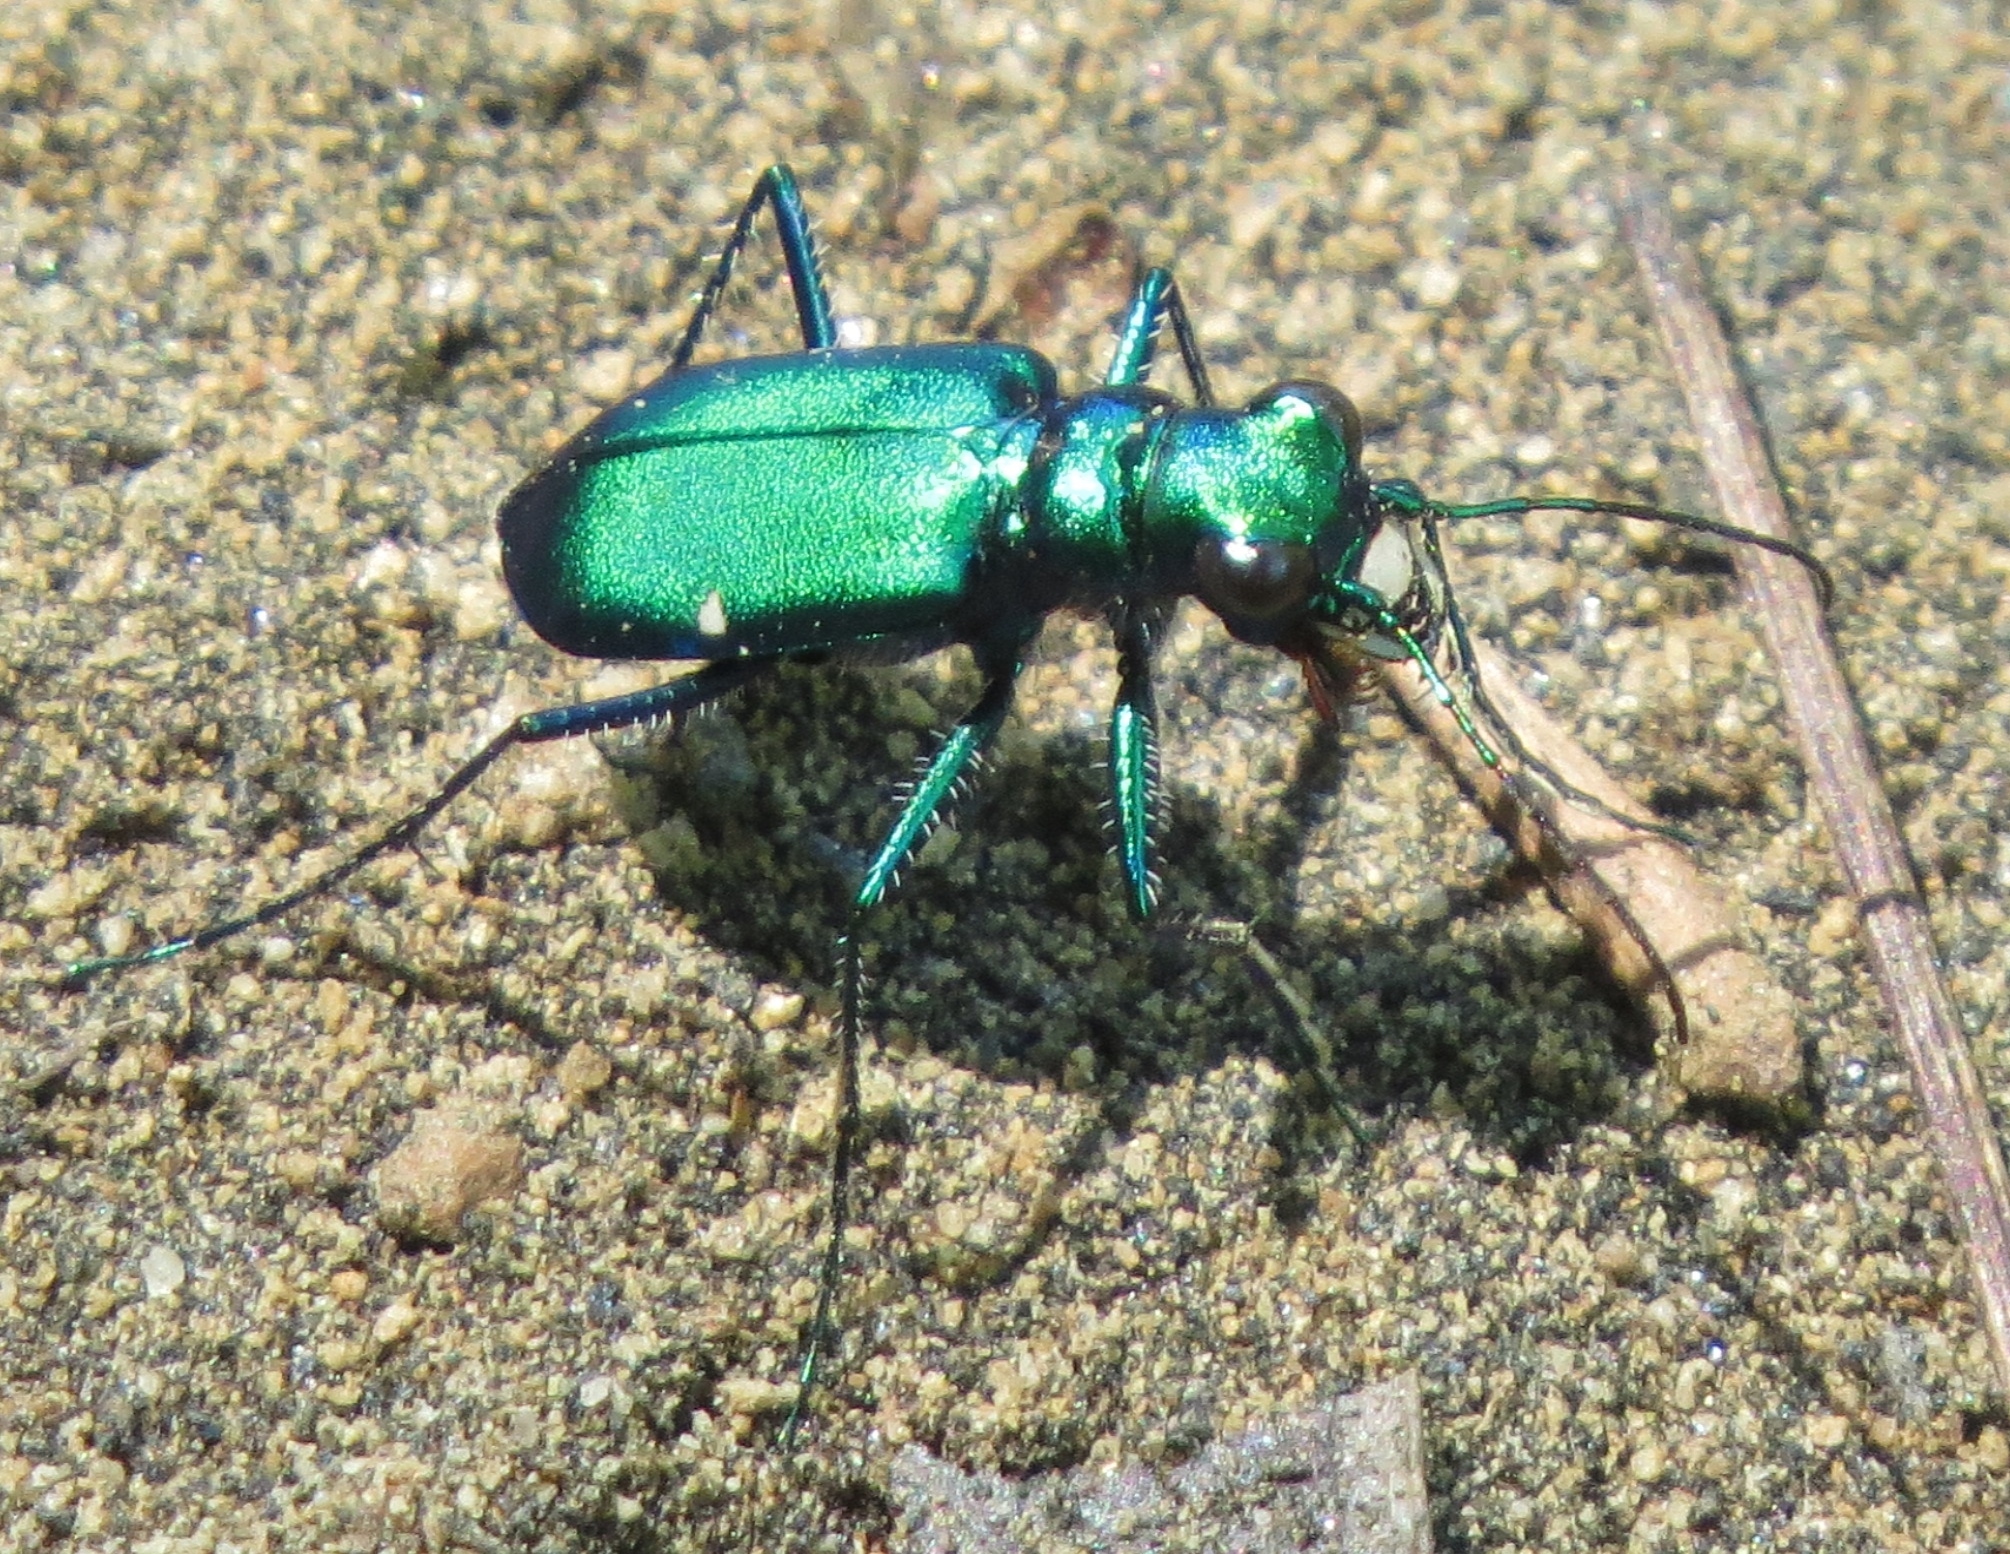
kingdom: Animalia
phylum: Arthropoda
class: Insecta
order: Coleoptera
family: Carabidae
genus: Cicindela
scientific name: Cicindela sexguttata
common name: Six-spotted tiger beetle
